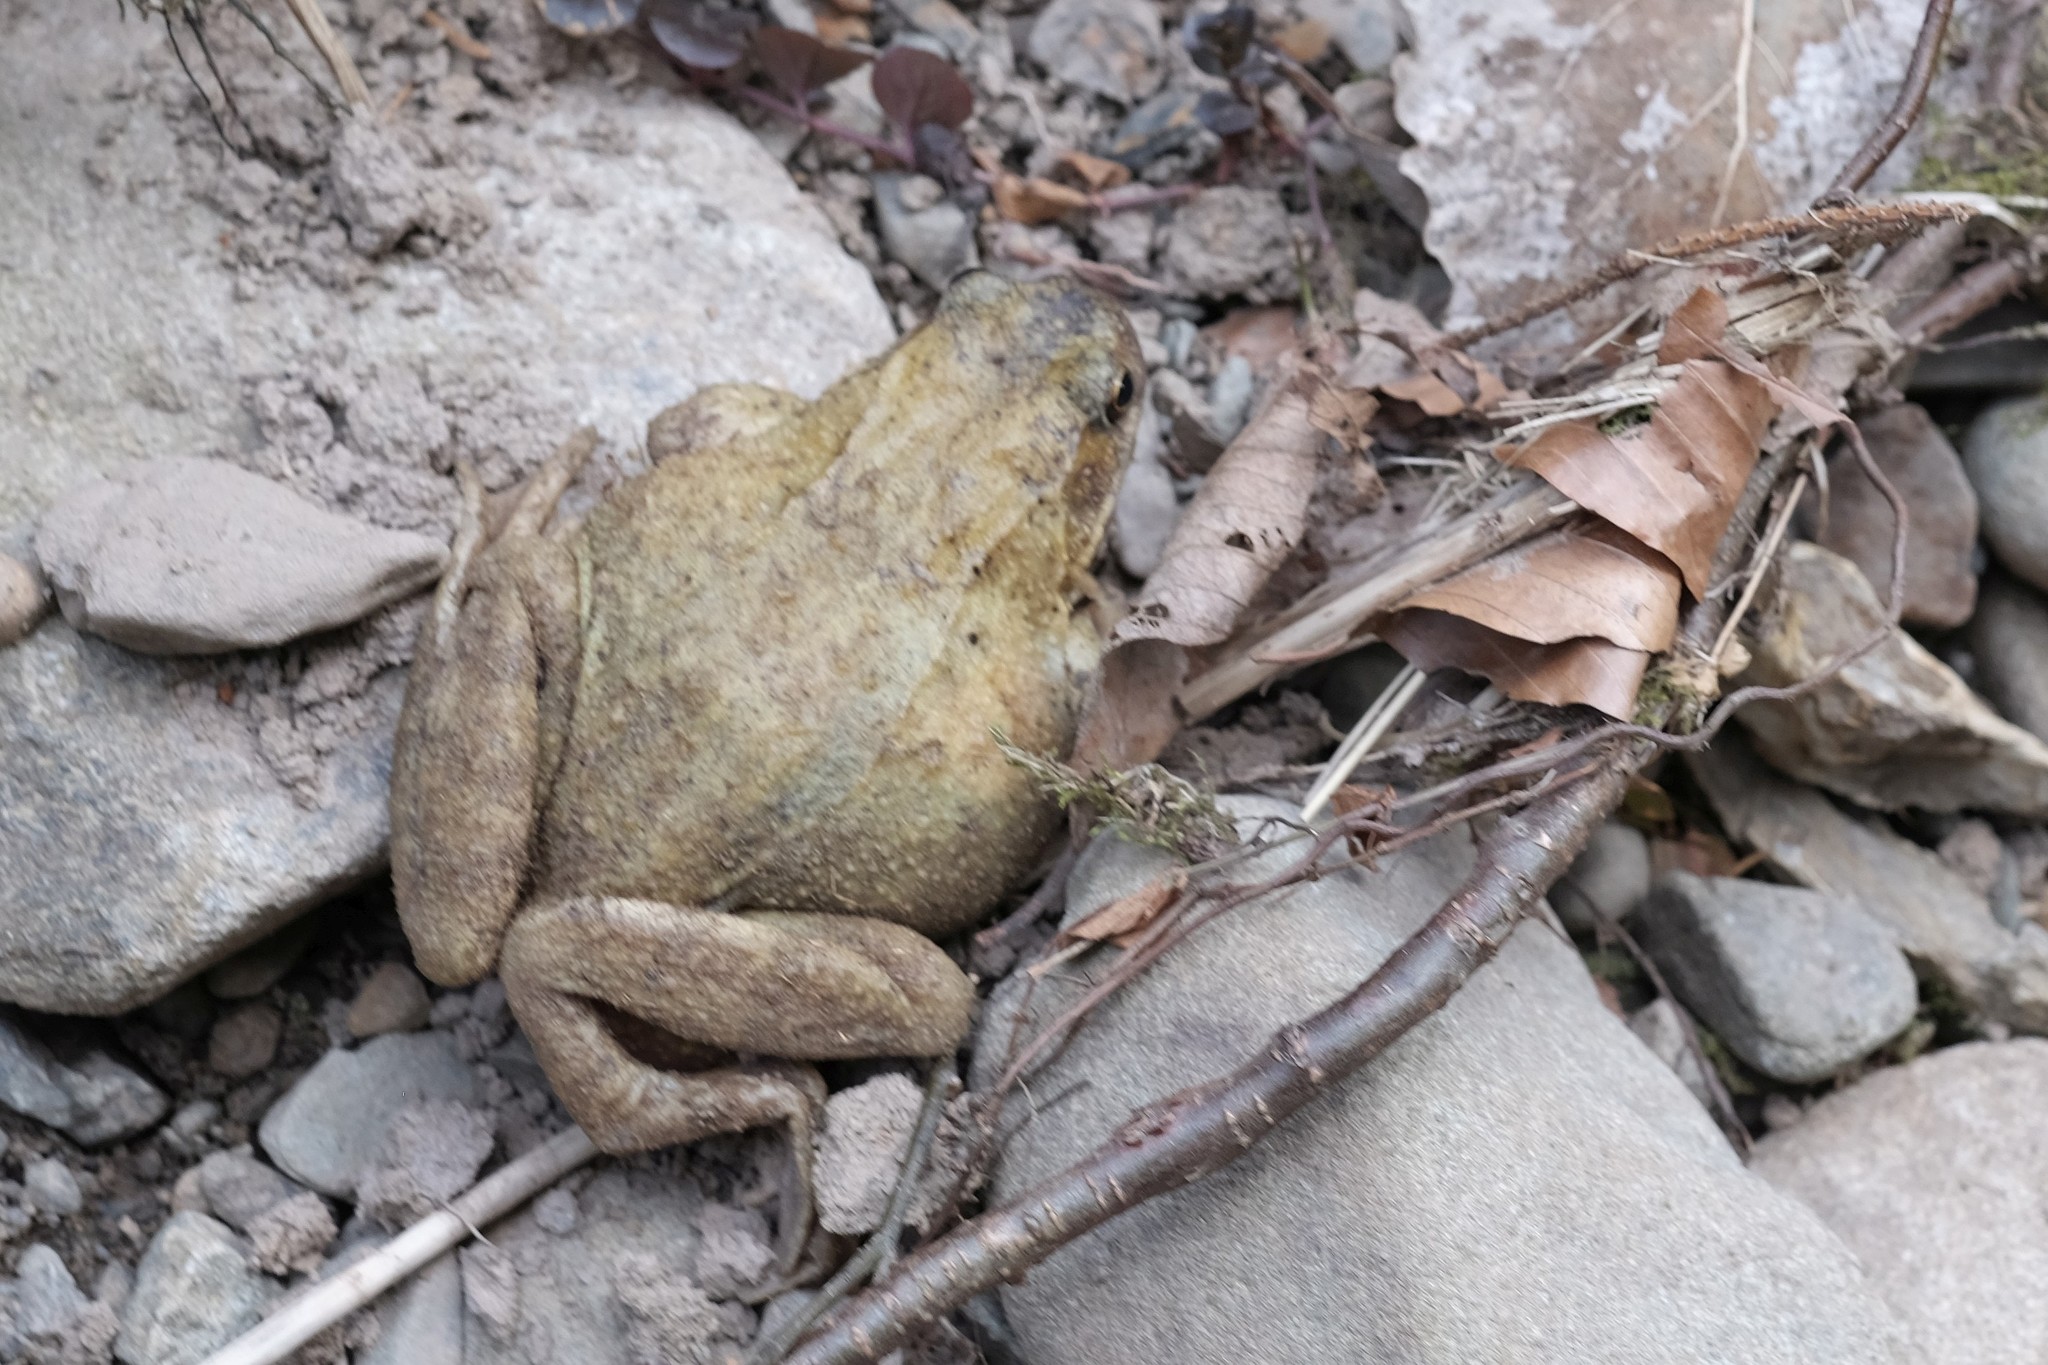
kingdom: Animalia
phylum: Chordata
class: Amphibia
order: Anura
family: Ranidae
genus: Rana
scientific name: Rana temporaria
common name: Common frog
